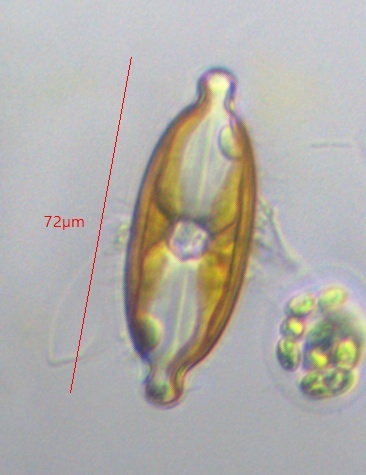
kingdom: Chromista
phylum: Ochrophyta
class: Bacillariophyceae
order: Naviculales
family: Naviculaceae
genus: Caloneis
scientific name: Caloneis amphisbaena
